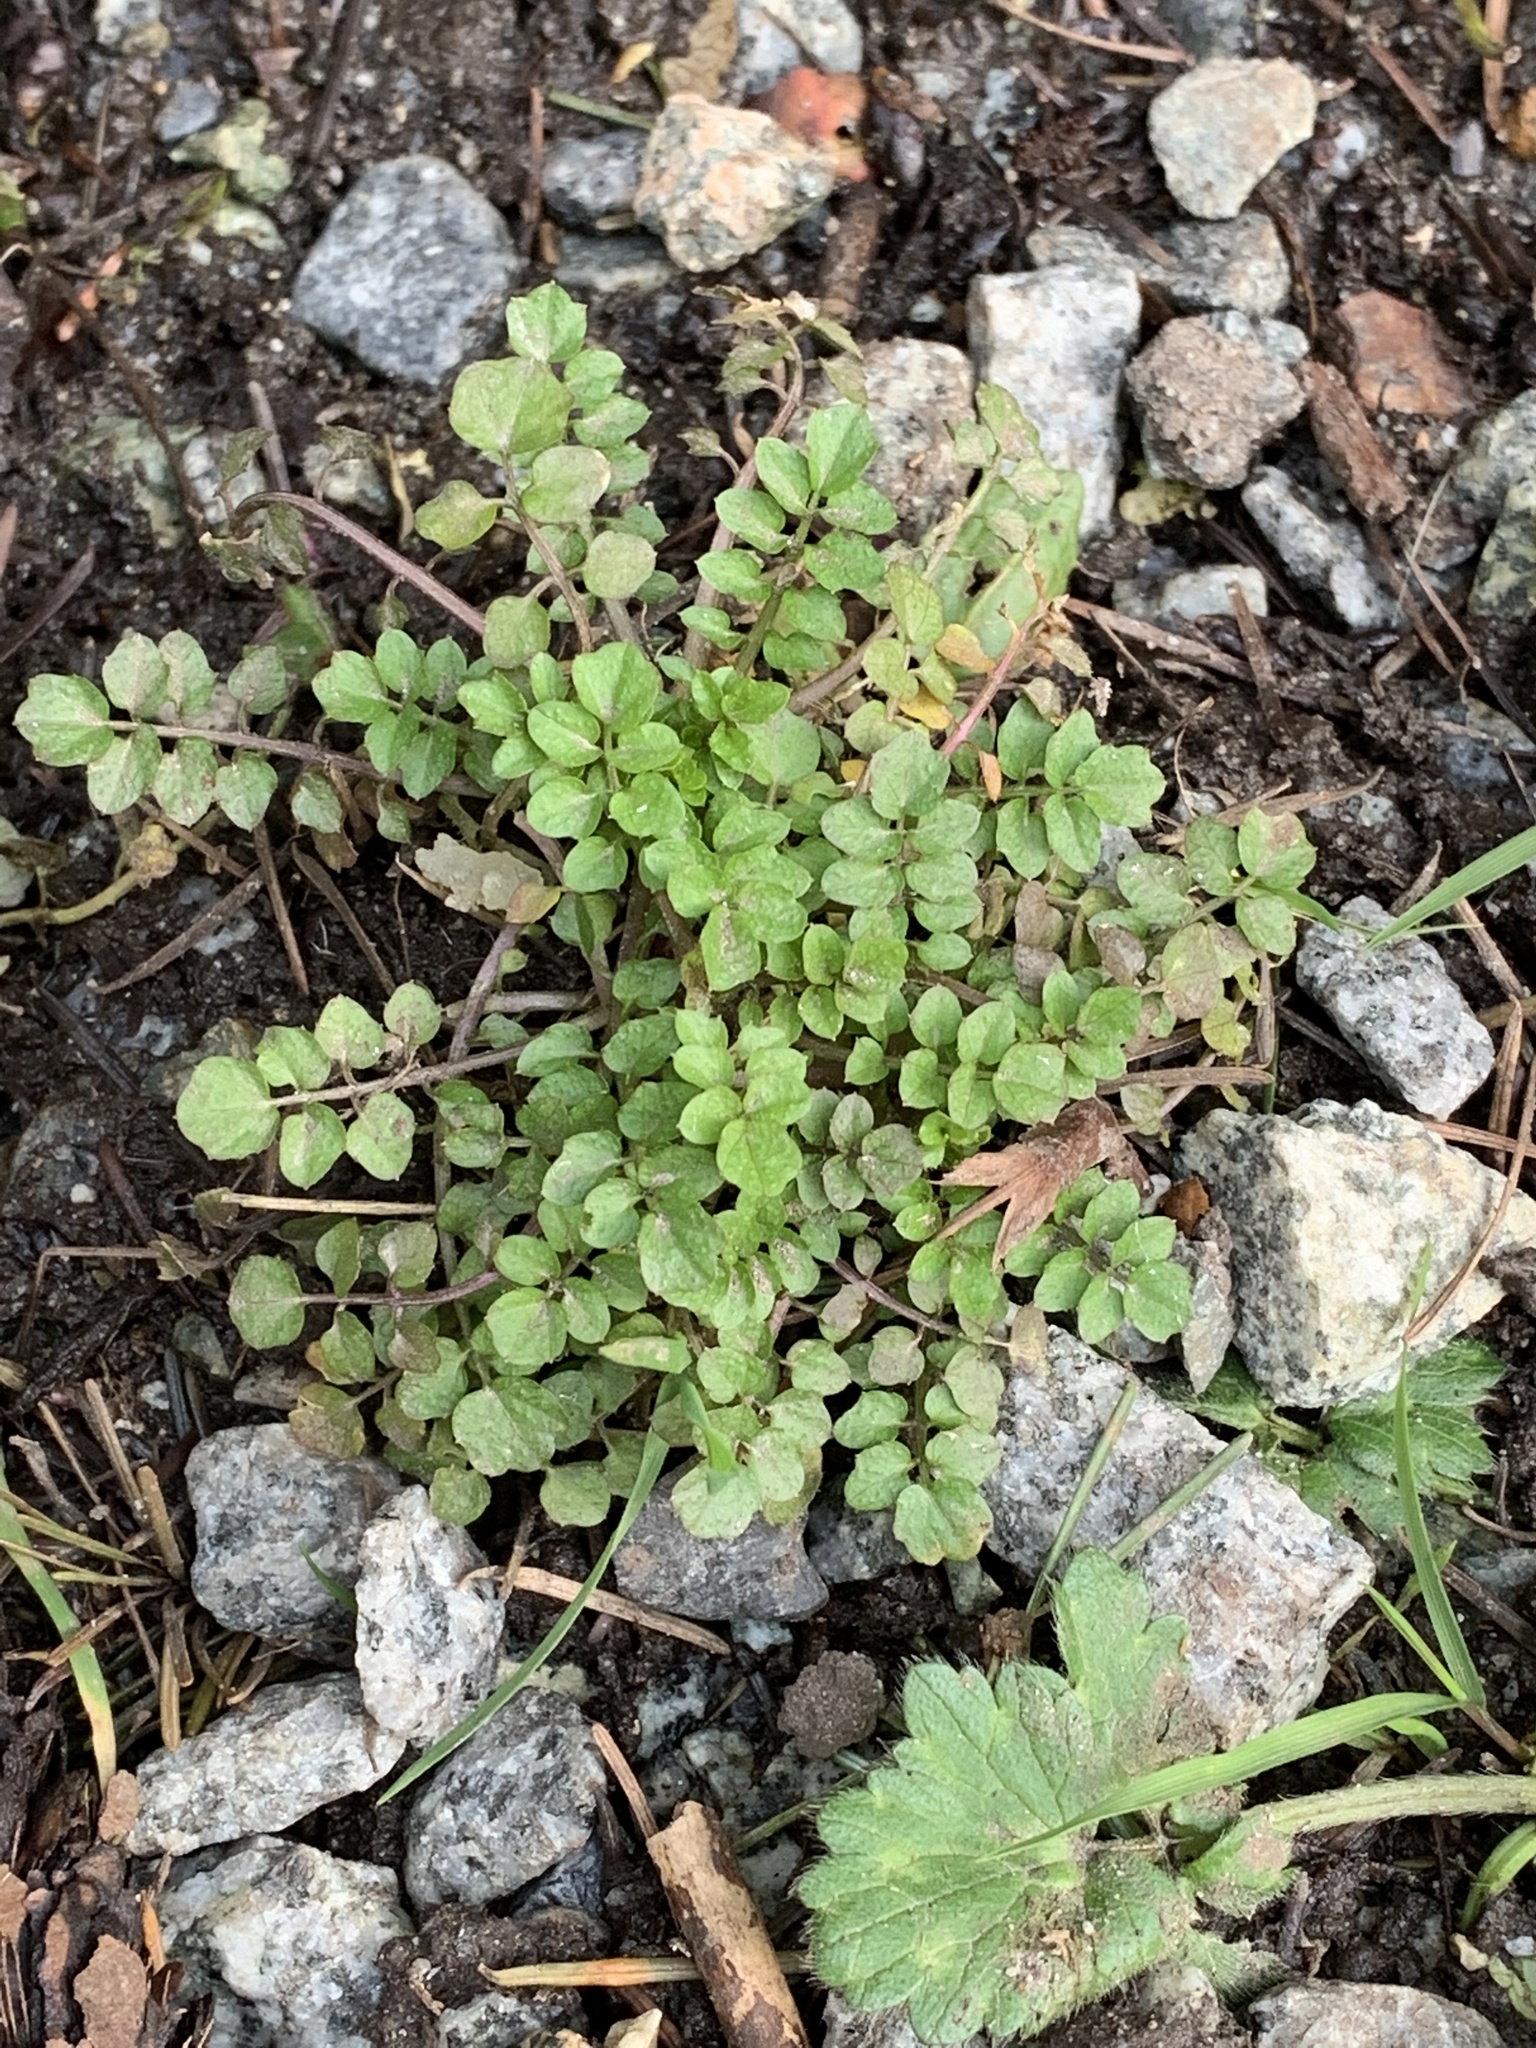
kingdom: Plantae
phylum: Tracheophyta
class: Magnoliopsida
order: Brassicales
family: Brassicaceae
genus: Cardamine
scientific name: Cardamine flexuosa
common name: Woodland bittercress
